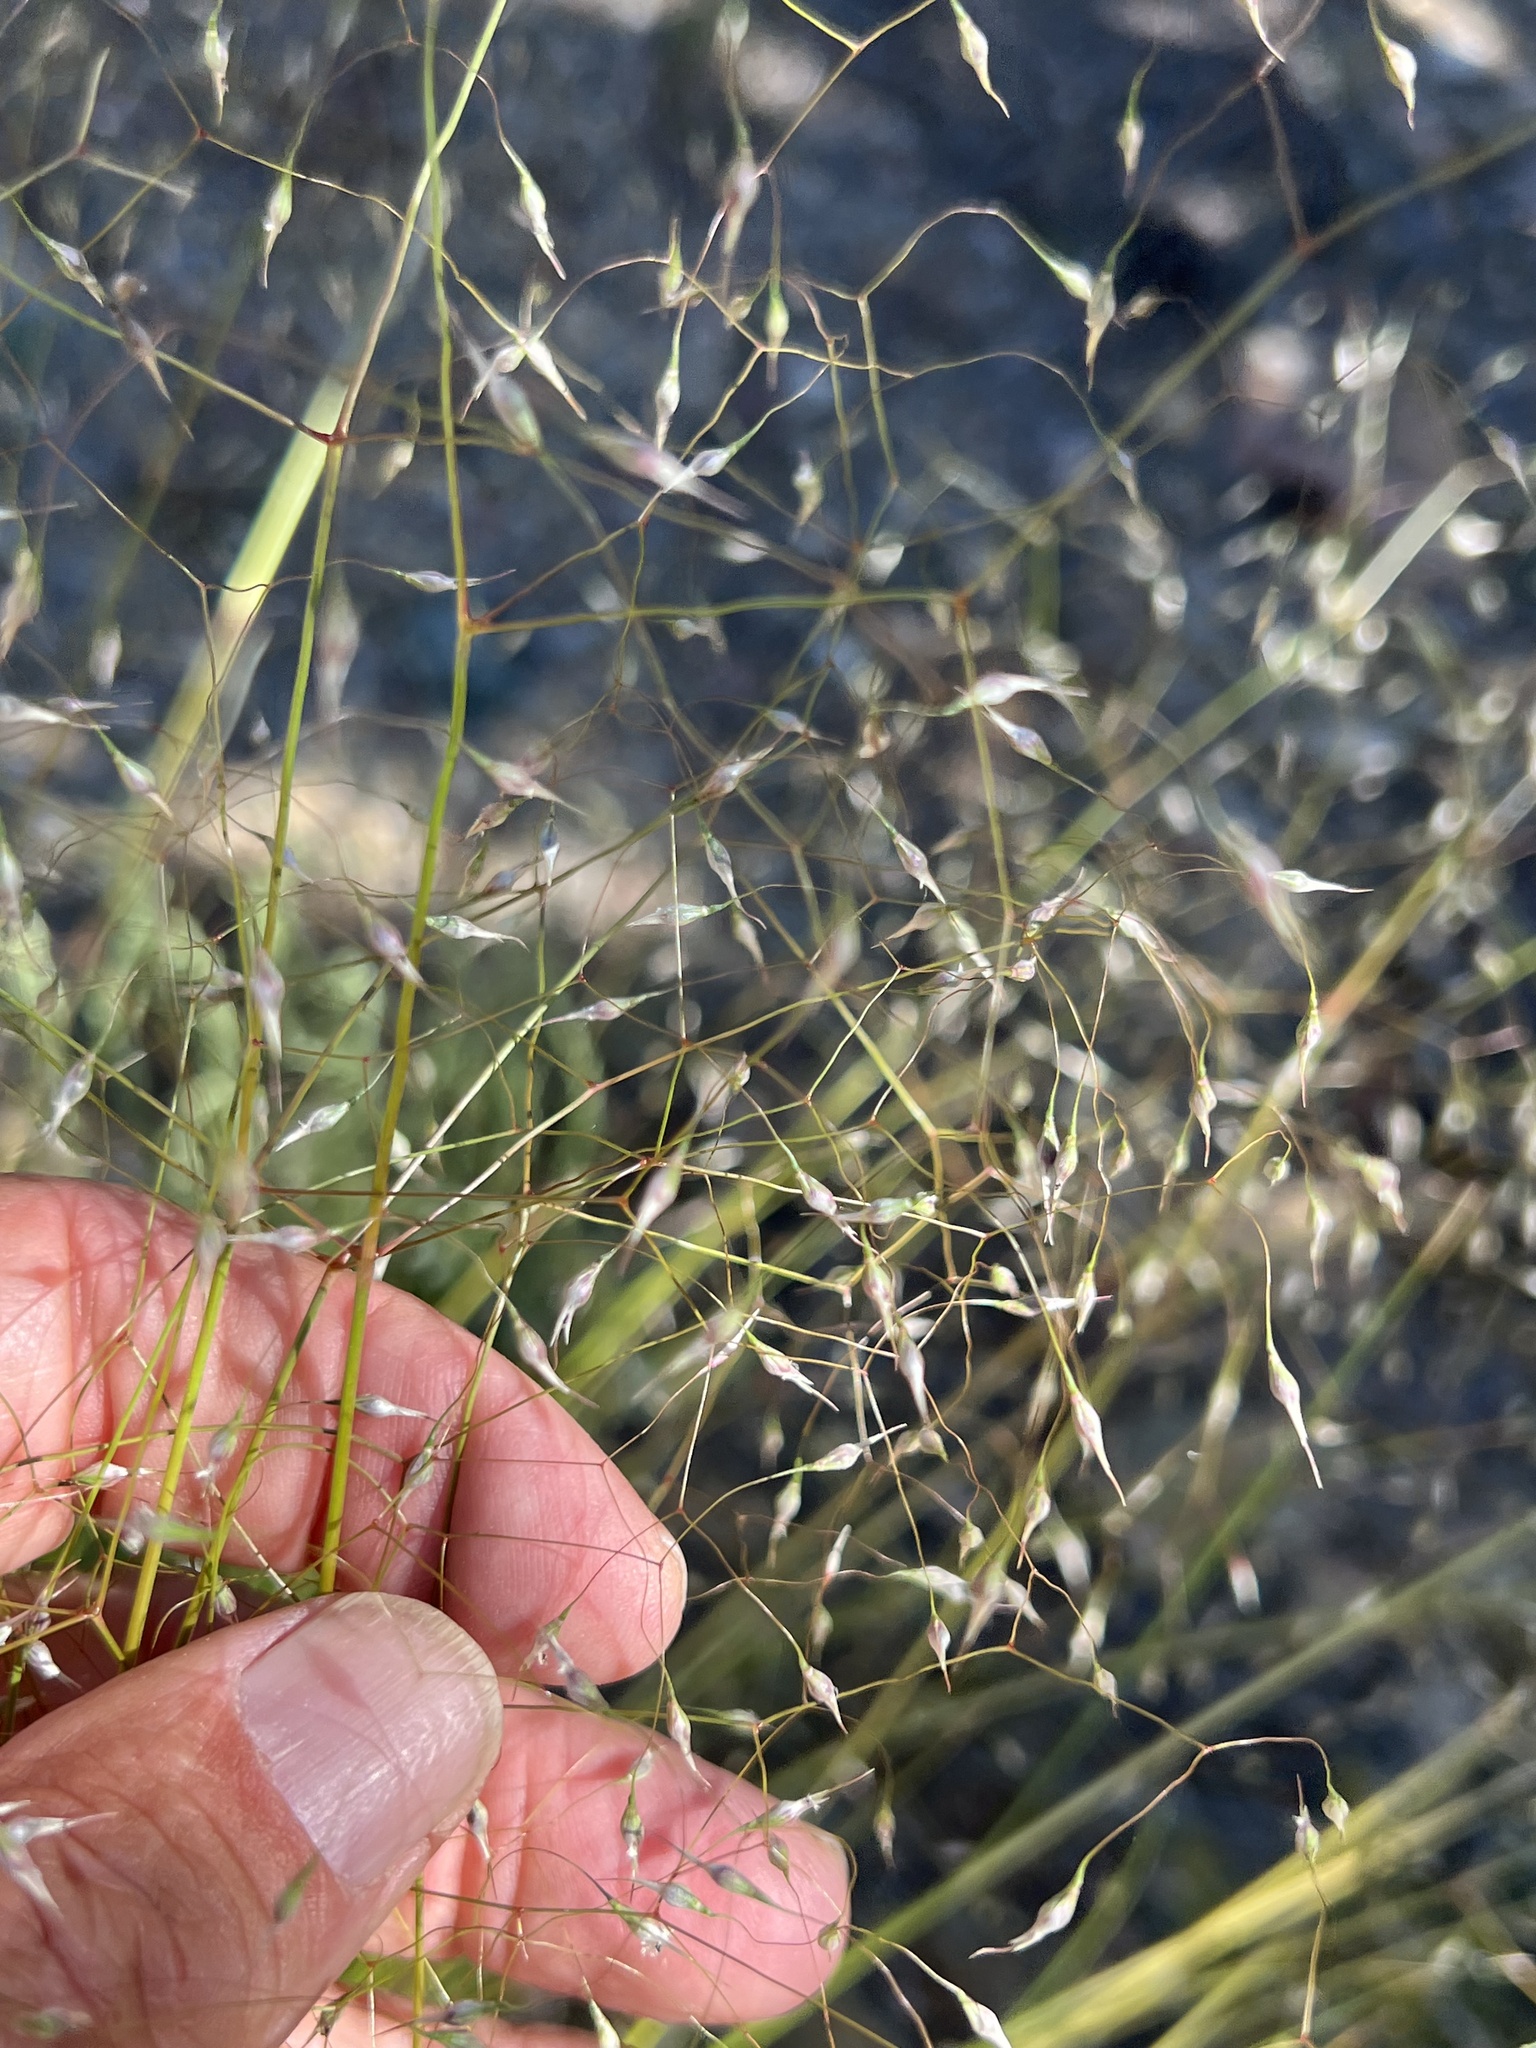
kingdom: Plantae
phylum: Tracheophyta
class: Liliopsida
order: Poales
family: Poaceae
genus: Eriocoma
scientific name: Eriocoma hymenoides
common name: Indian mountain ricegrass
